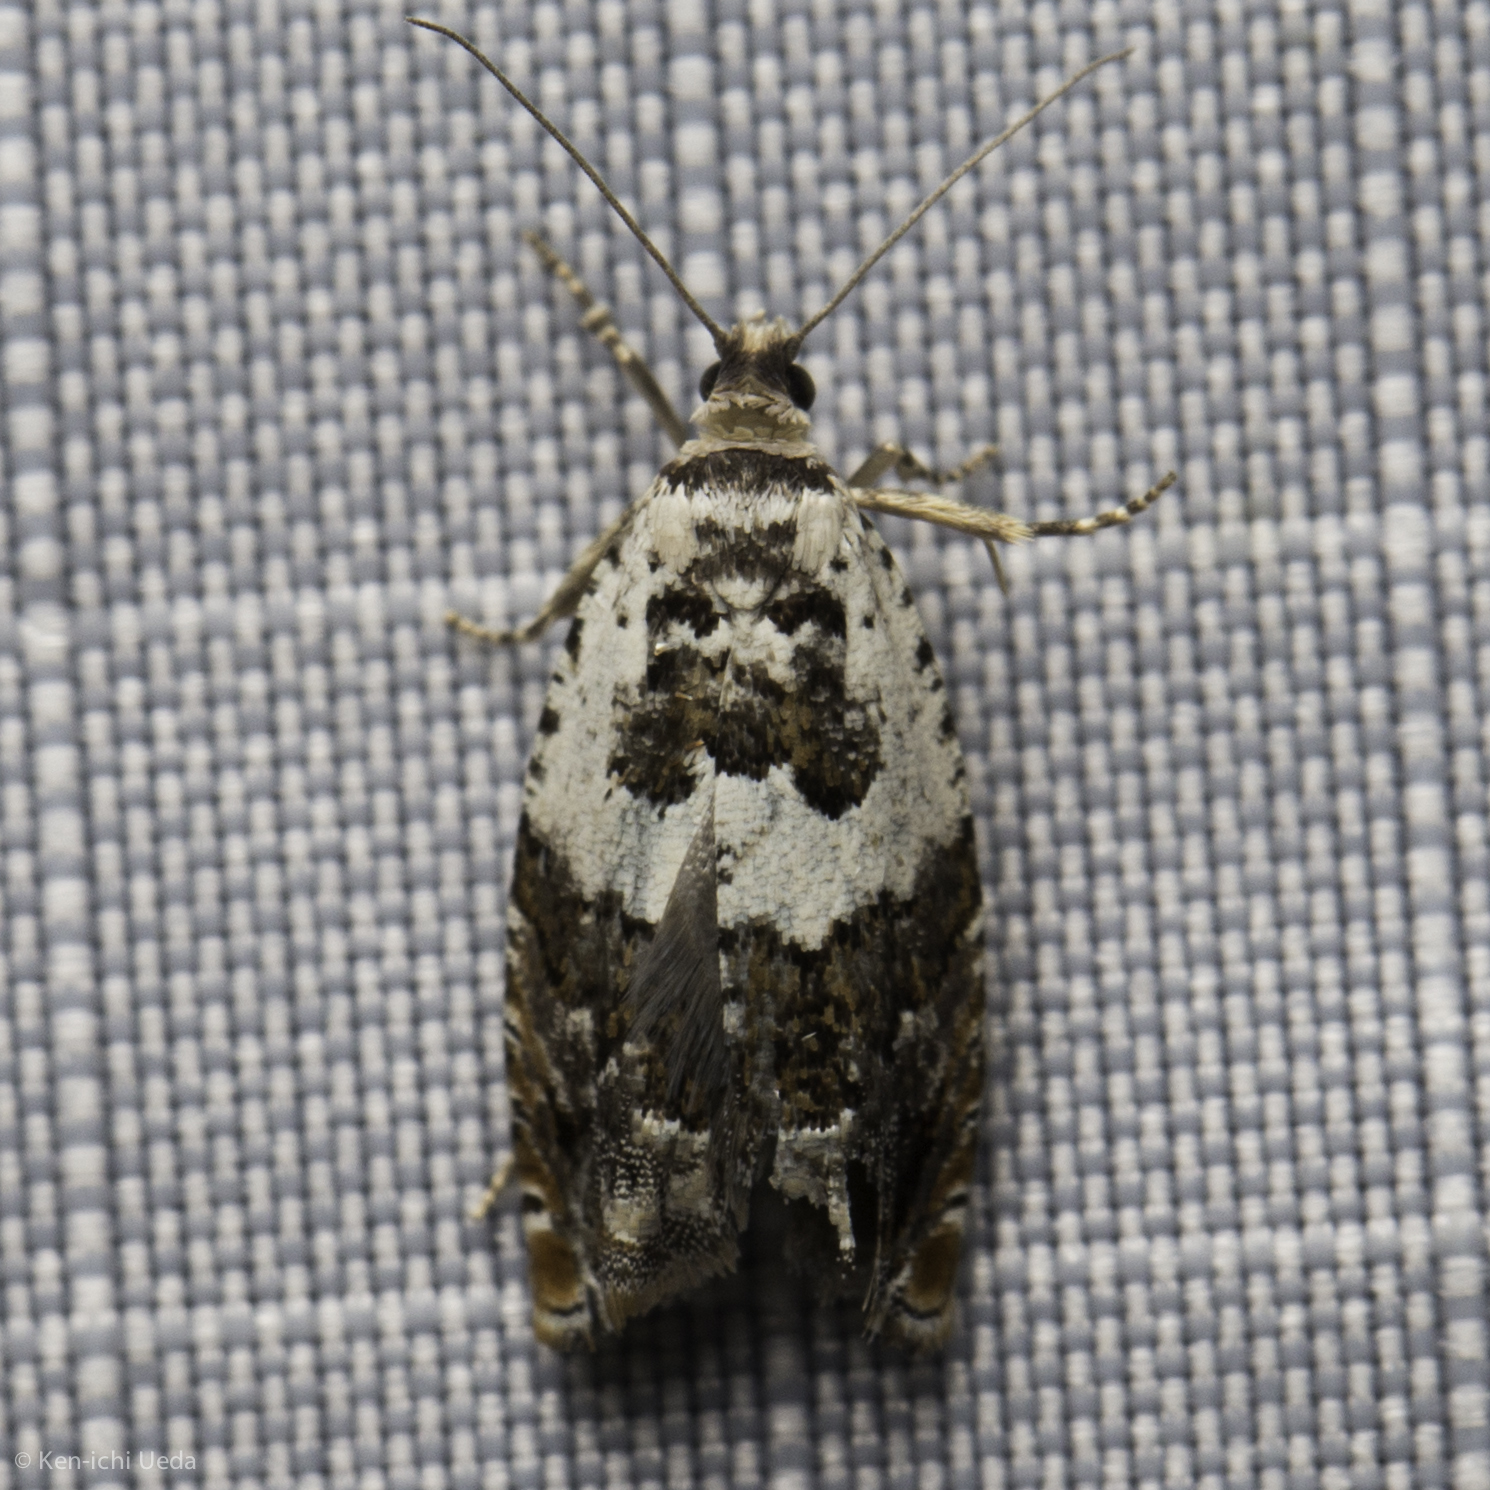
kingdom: Animalia
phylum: Arthropoda
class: Insecta
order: Lepidoptera
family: Tortricidae
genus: Epinotia
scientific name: Epinotia nigralbana
